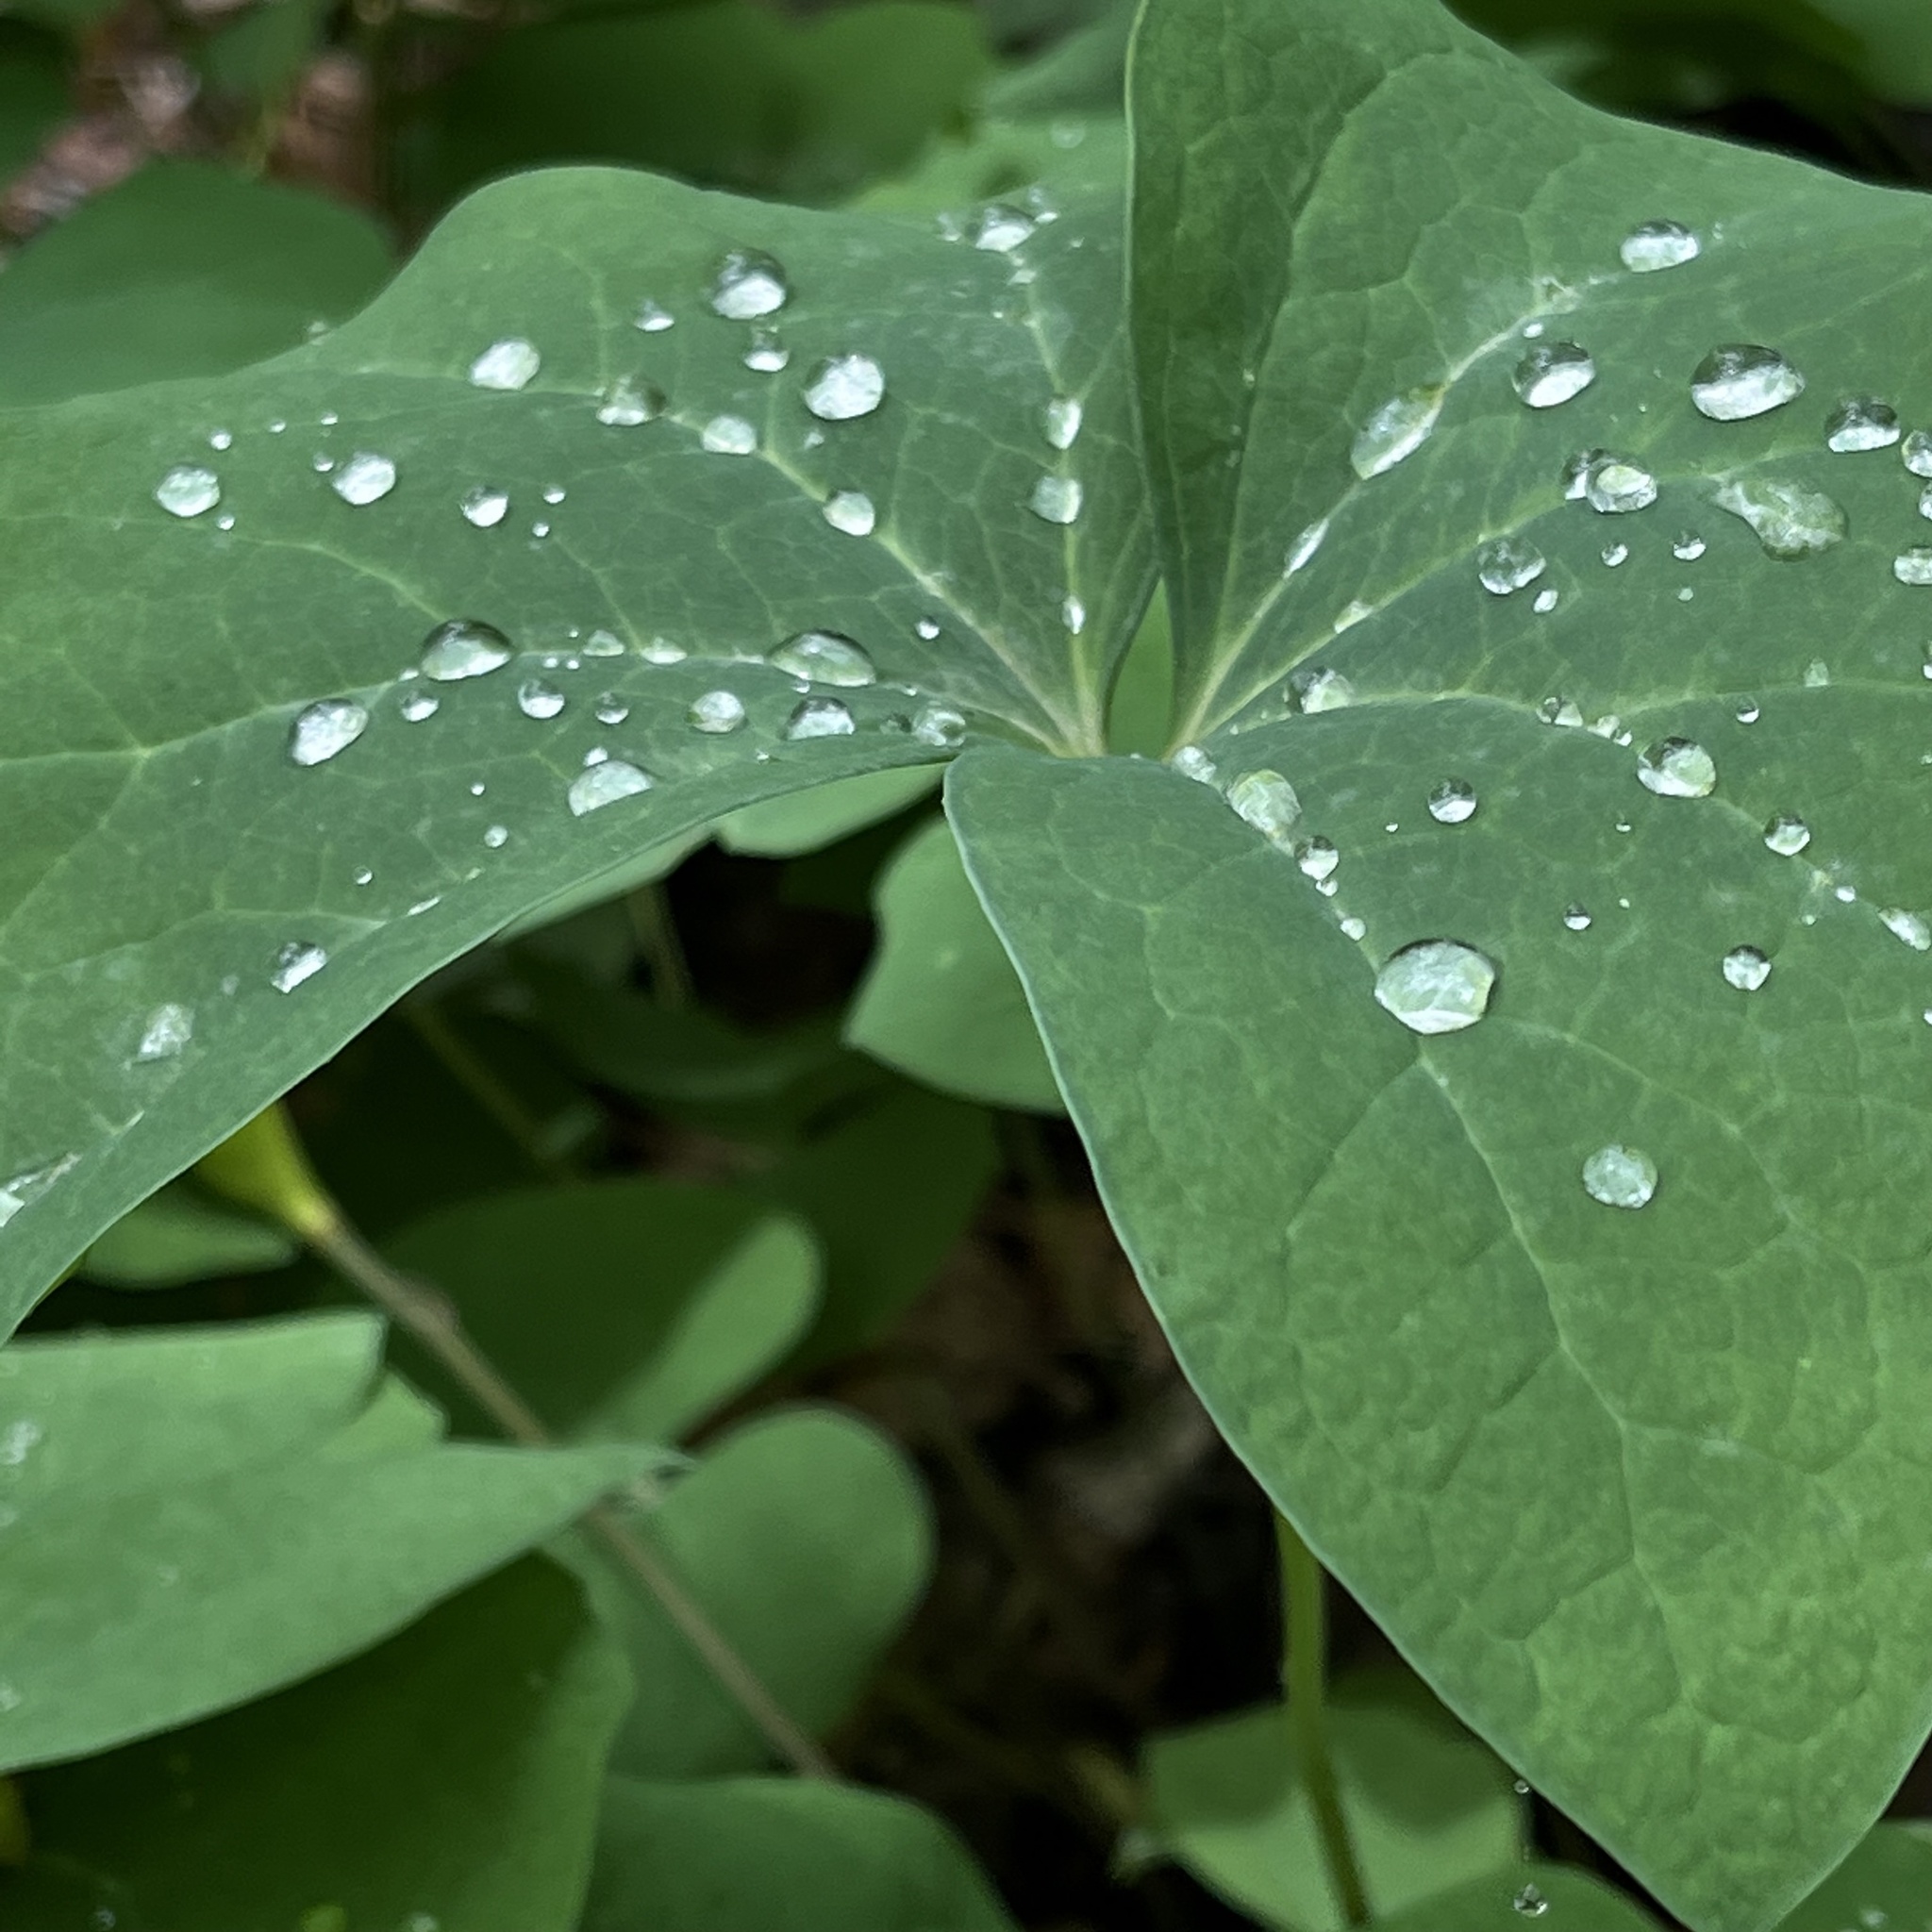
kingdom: Plantae
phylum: Tracheophyta
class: Magnoliopsida
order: Ranunculales
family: Berberidaceae
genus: Jeffersonia
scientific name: Jeffersonia diphylla
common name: Rheumatism-root
